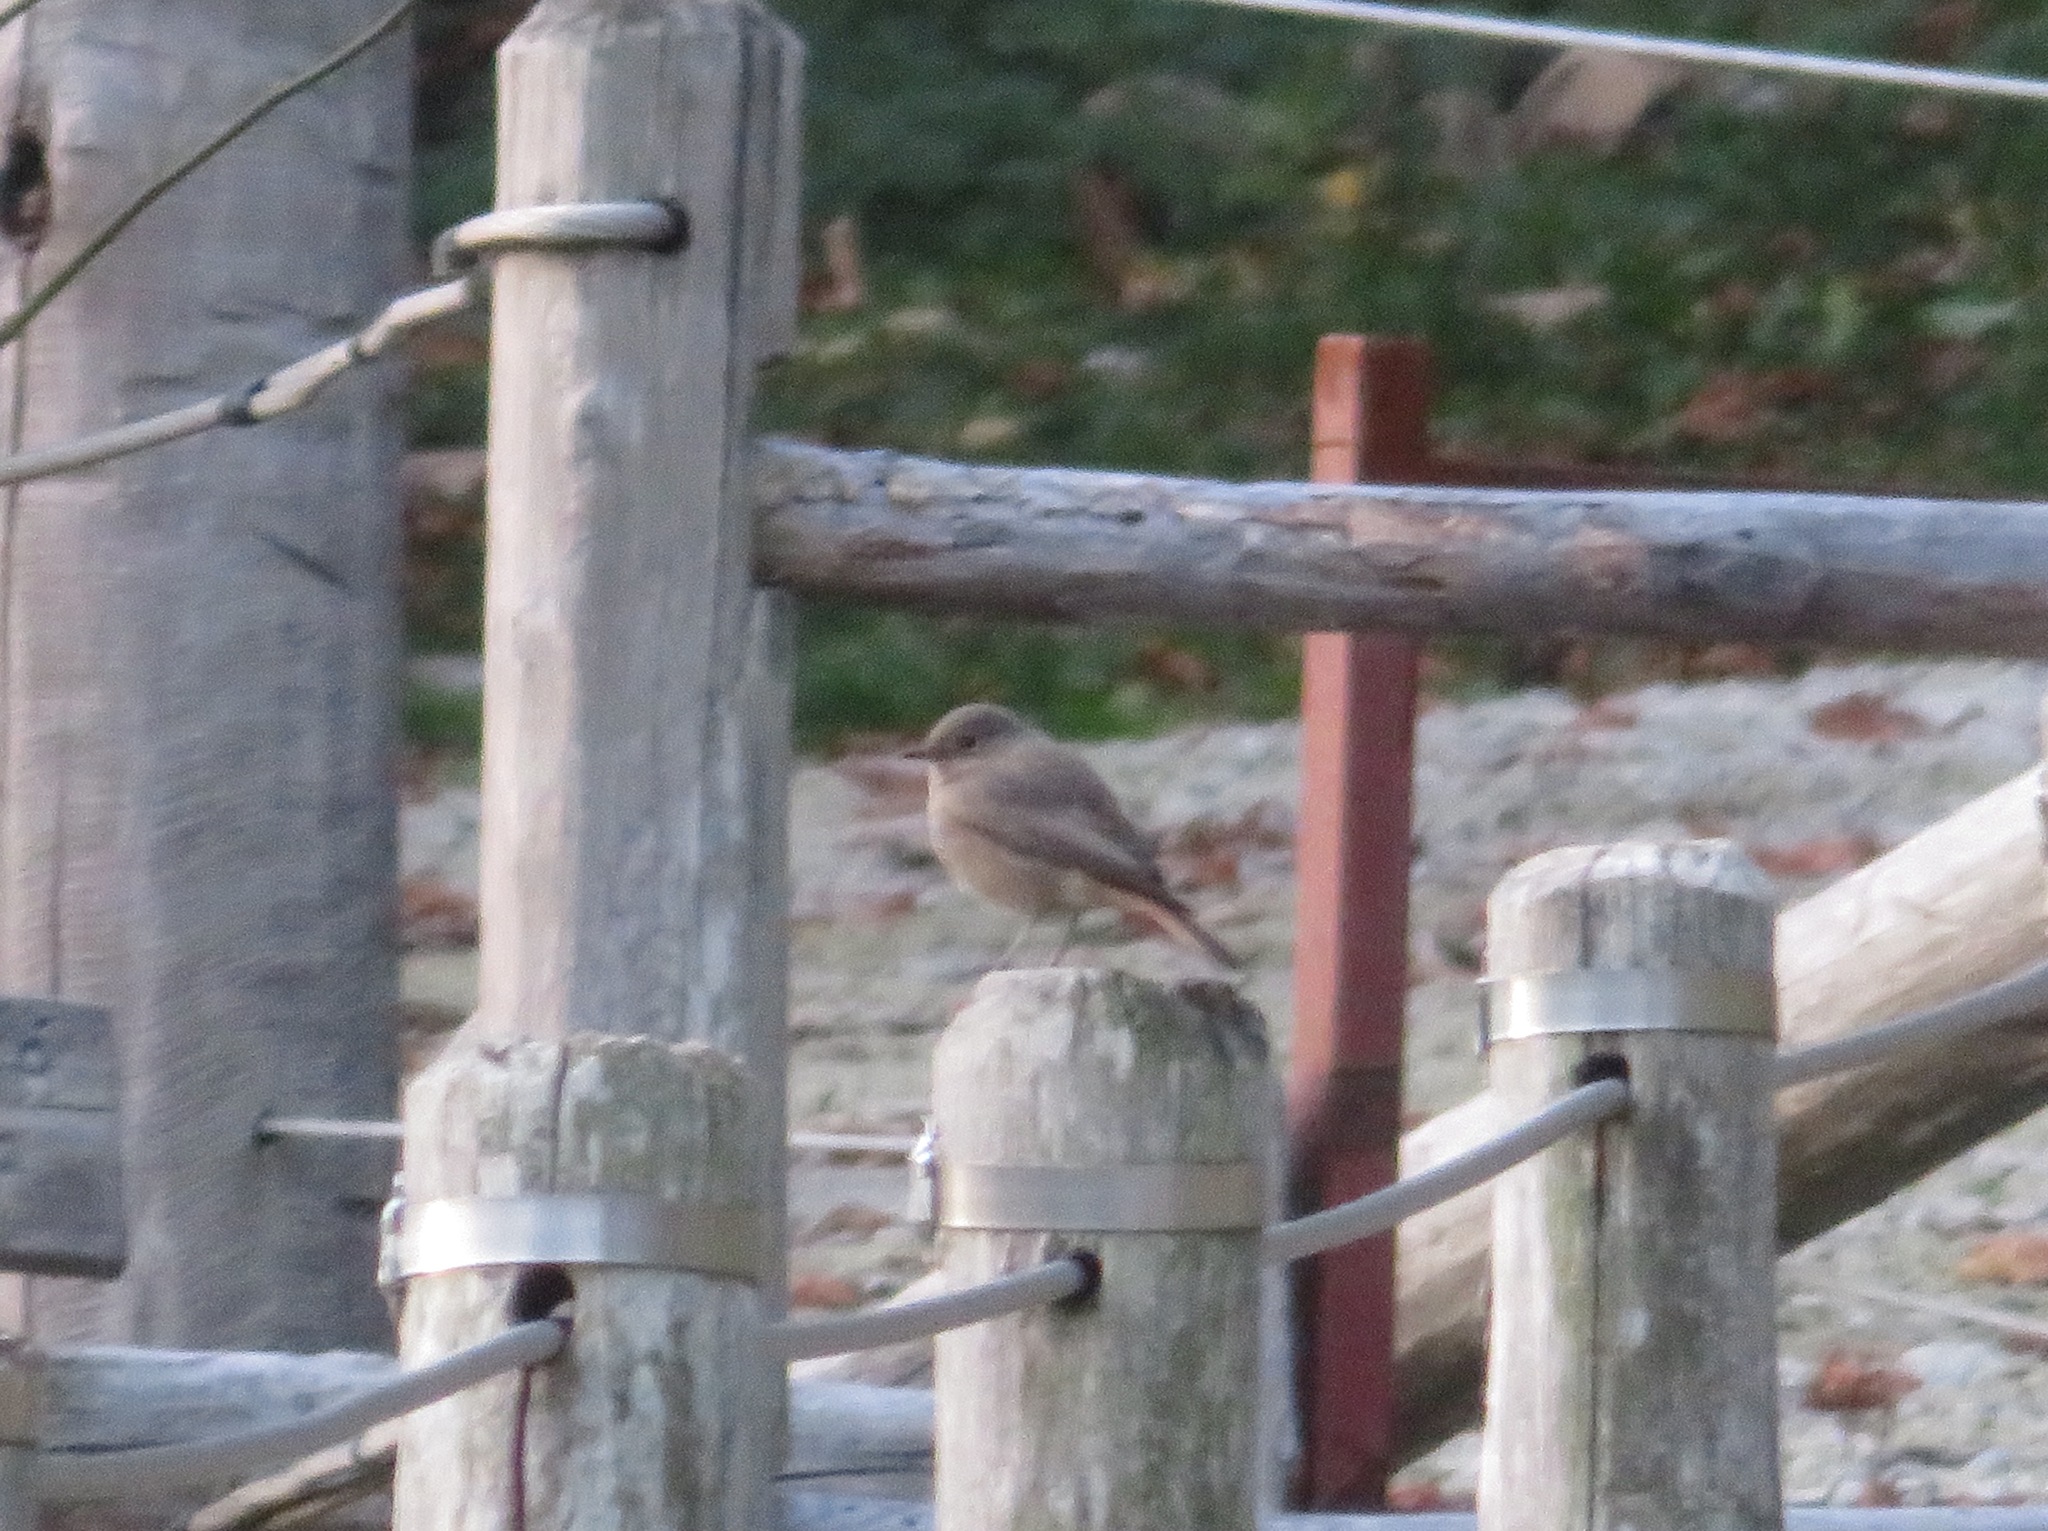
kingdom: Animalia
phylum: Chordata
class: Aves
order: Passeriformes
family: Muscicapidae
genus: Phoenicurus
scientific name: Phoenicurus ochruros
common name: Black redstart
